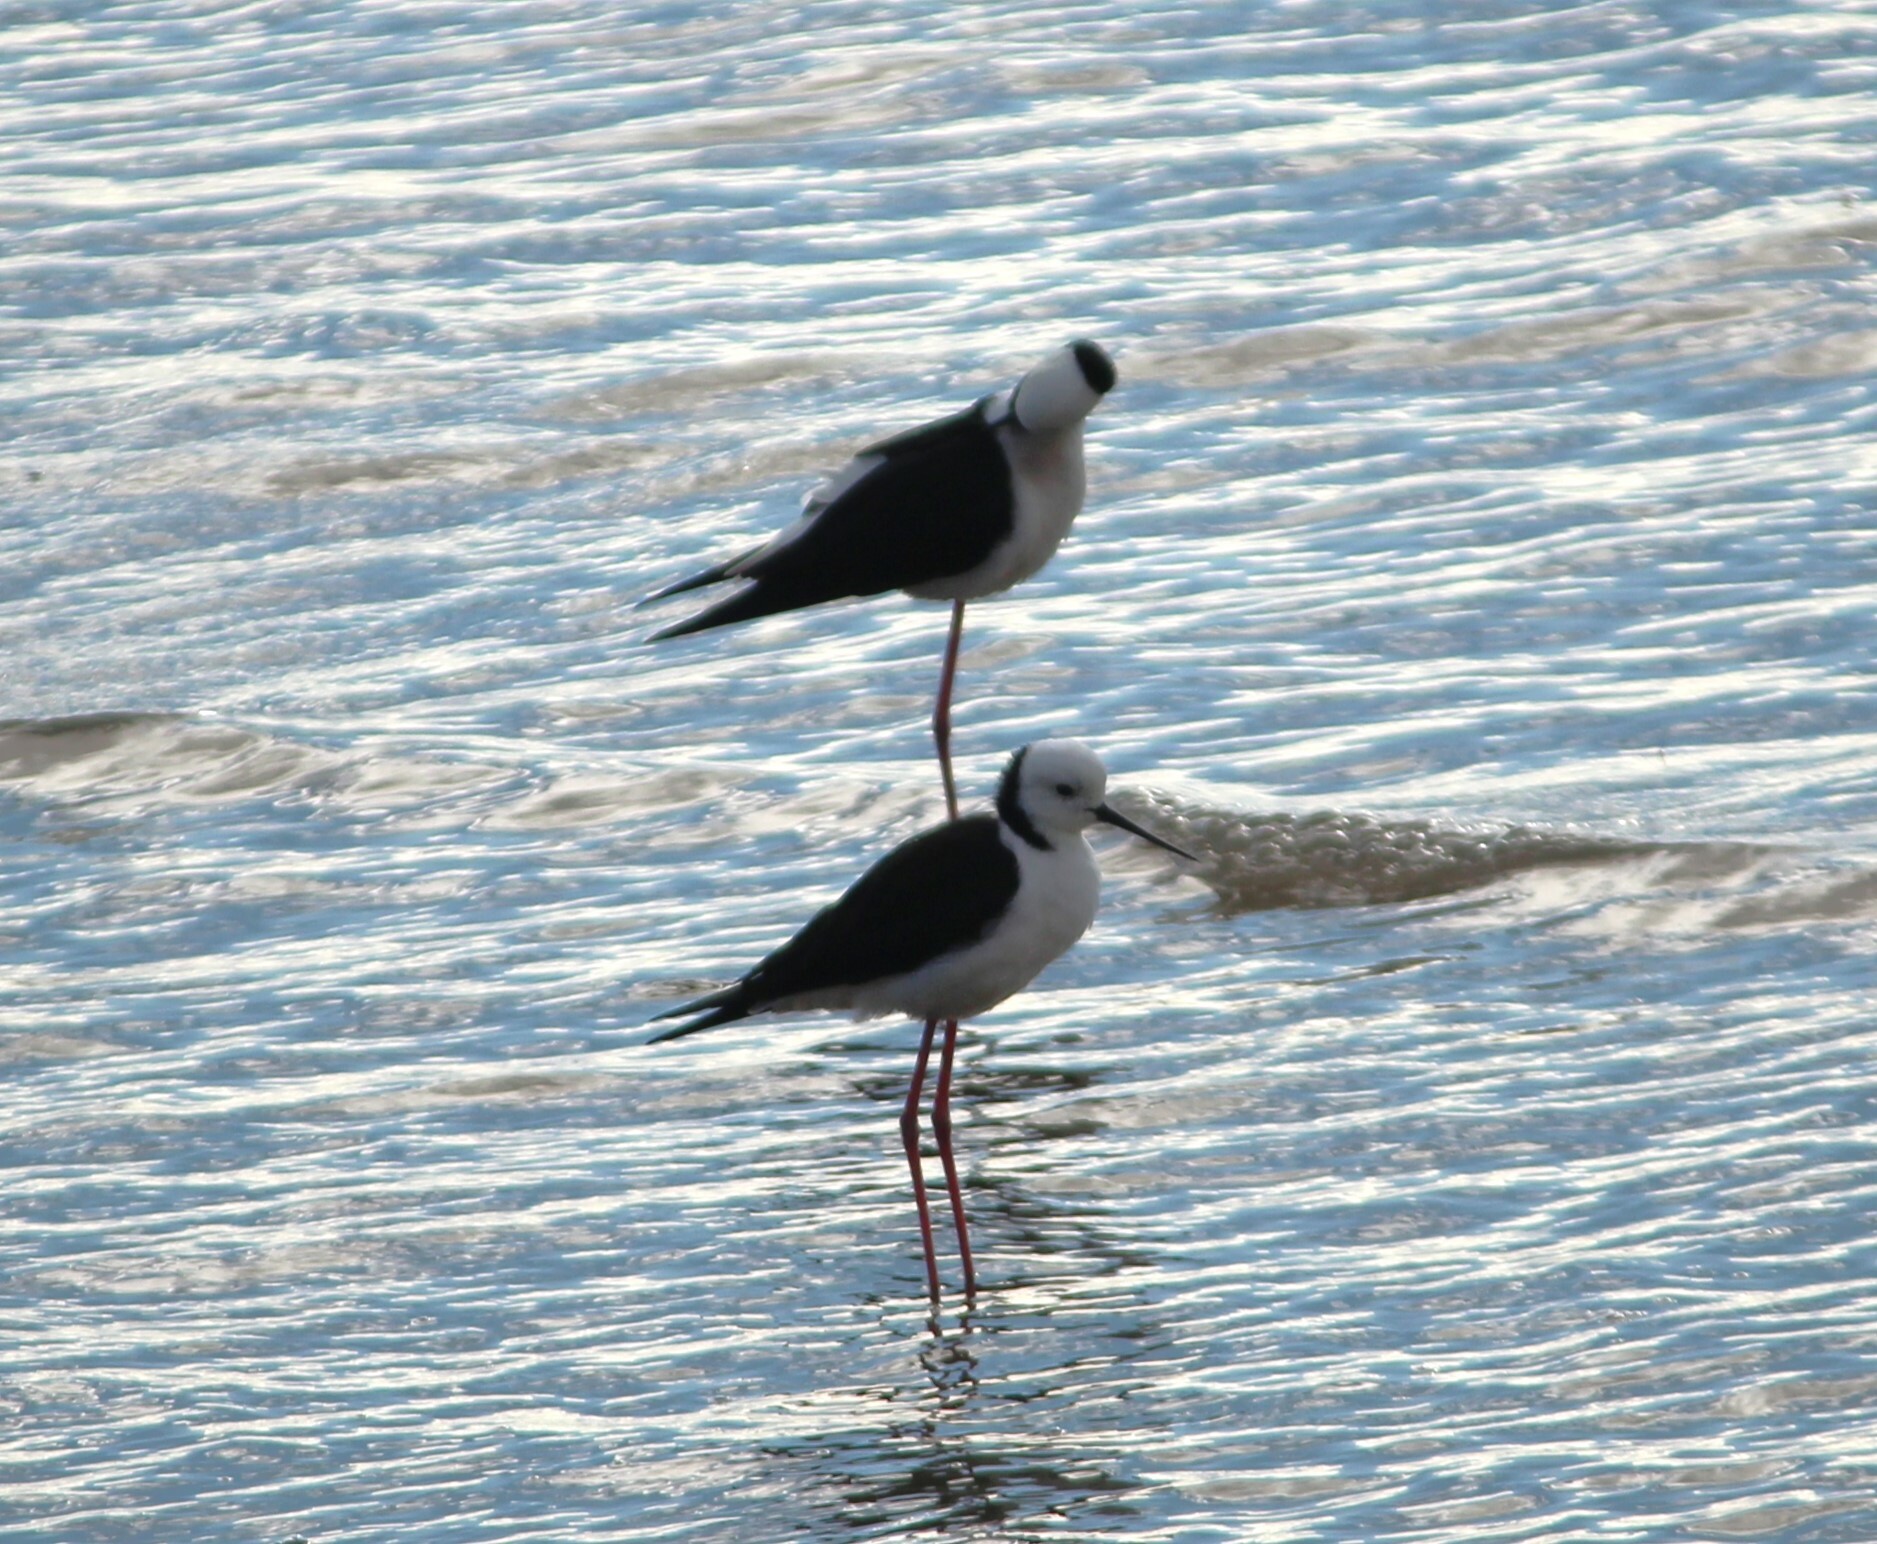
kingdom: Animalia
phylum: Chordata
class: Aves
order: Charadriiformes
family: Recurvirostridae
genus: Himantopus
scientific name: Himantopus leucocephalus
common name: White-headed stilt
